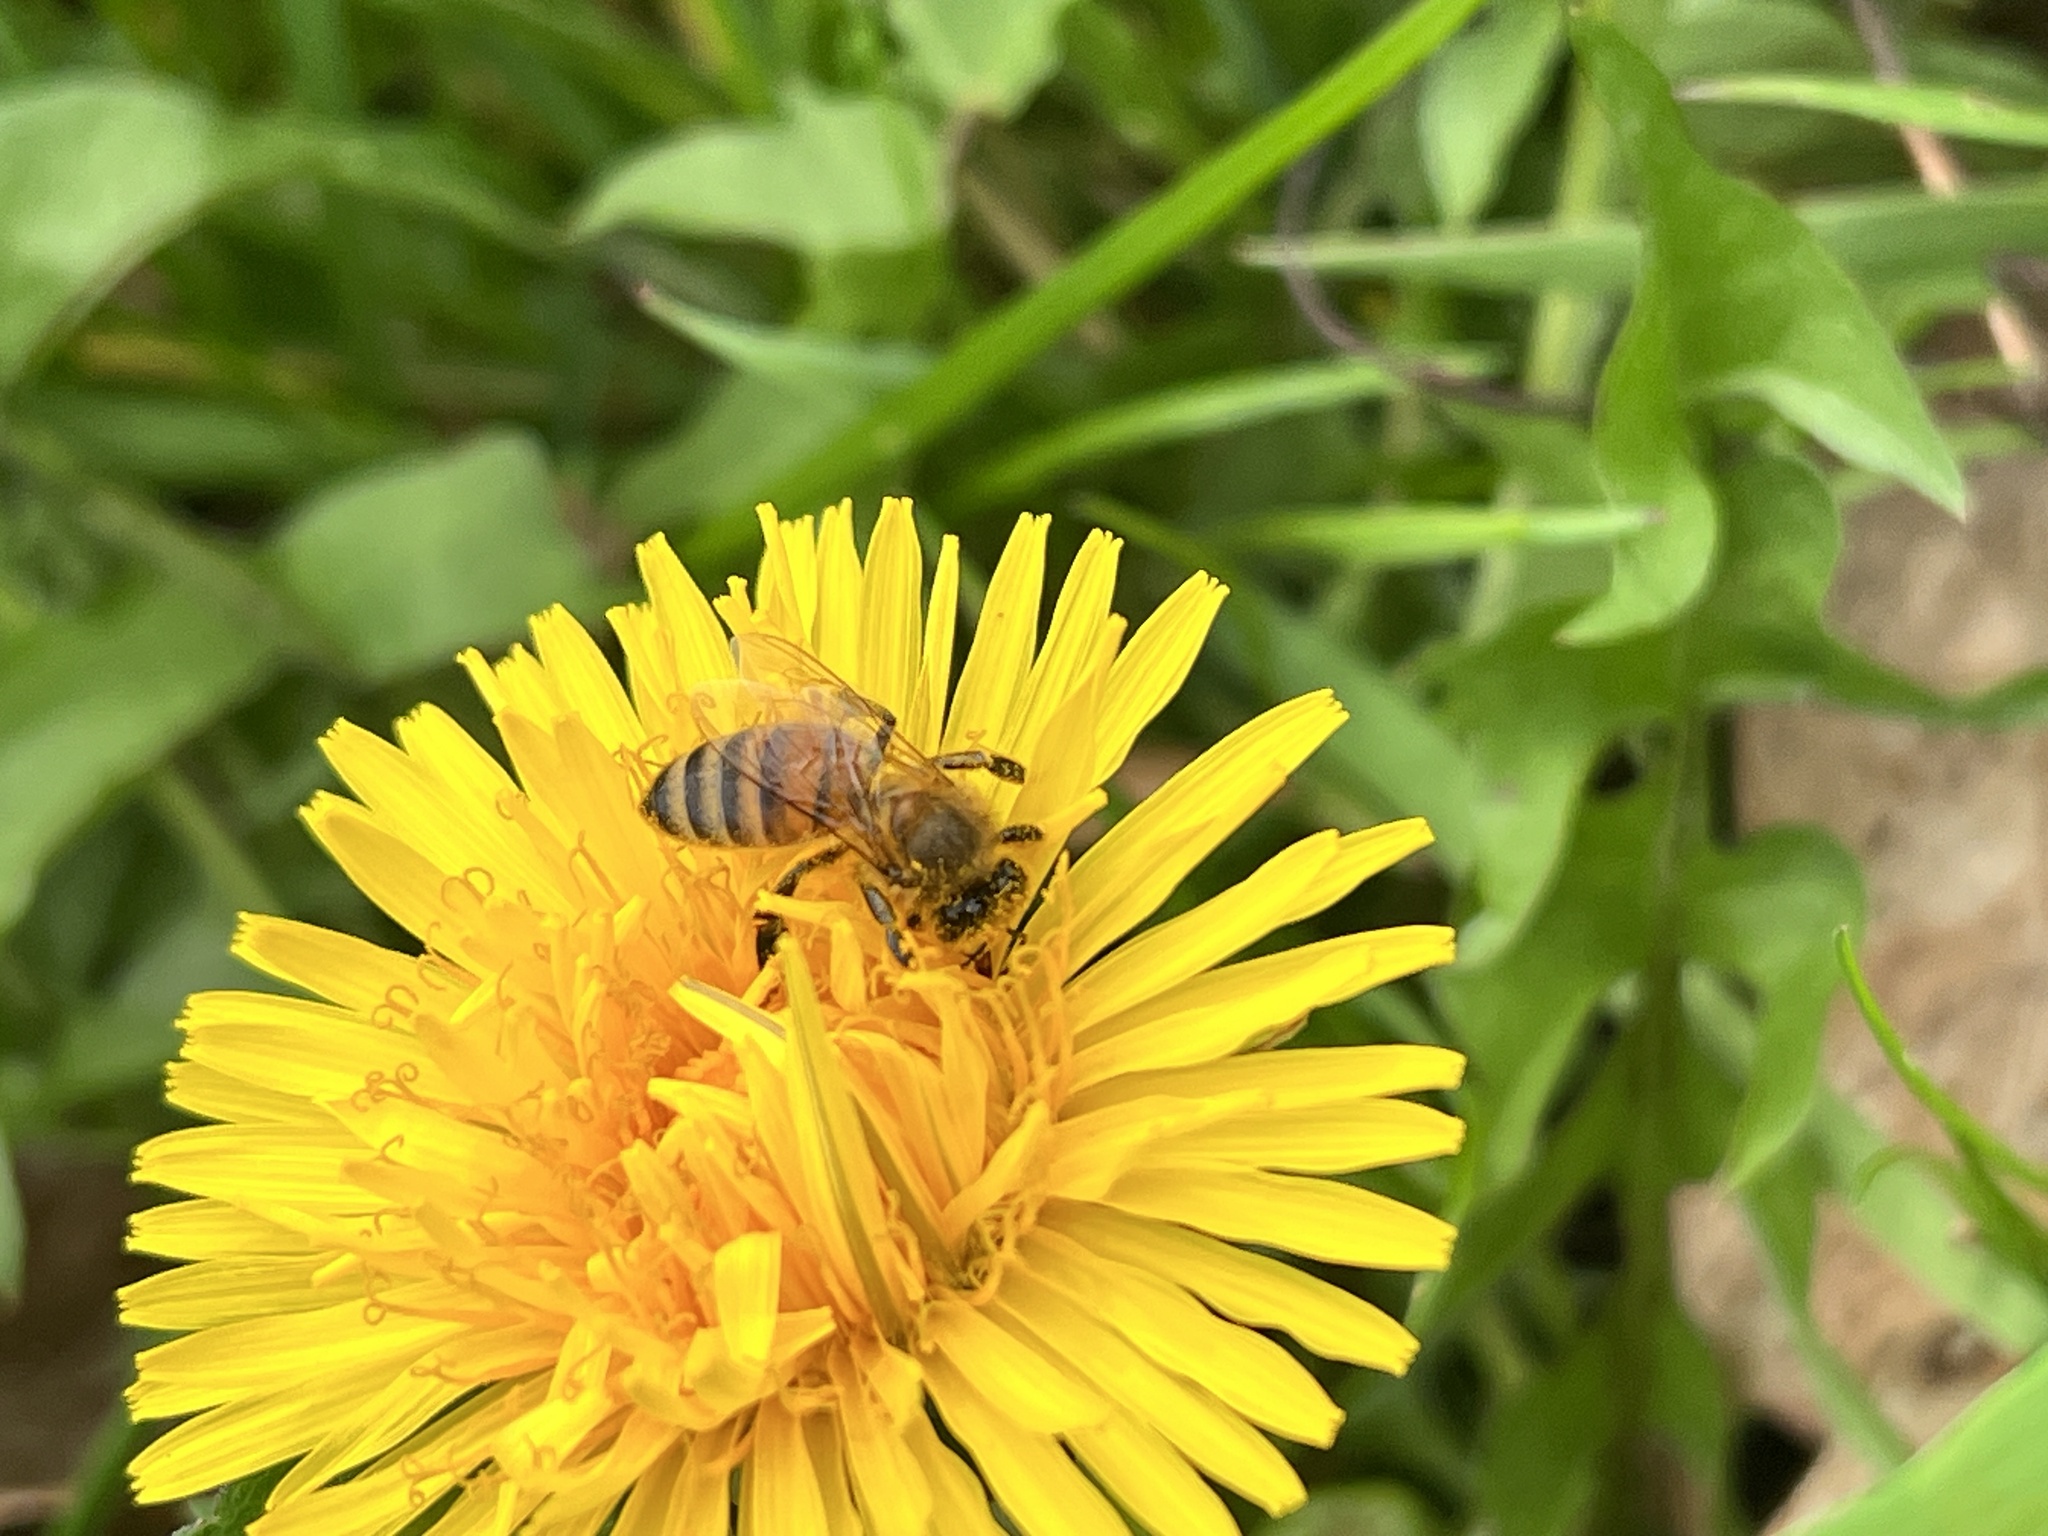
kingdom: Animalia
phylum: Arthropoda
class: Insecta
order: Hymenoptera
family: Apidae
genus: Apis
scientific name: Apis mellifera
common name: Honey bee
